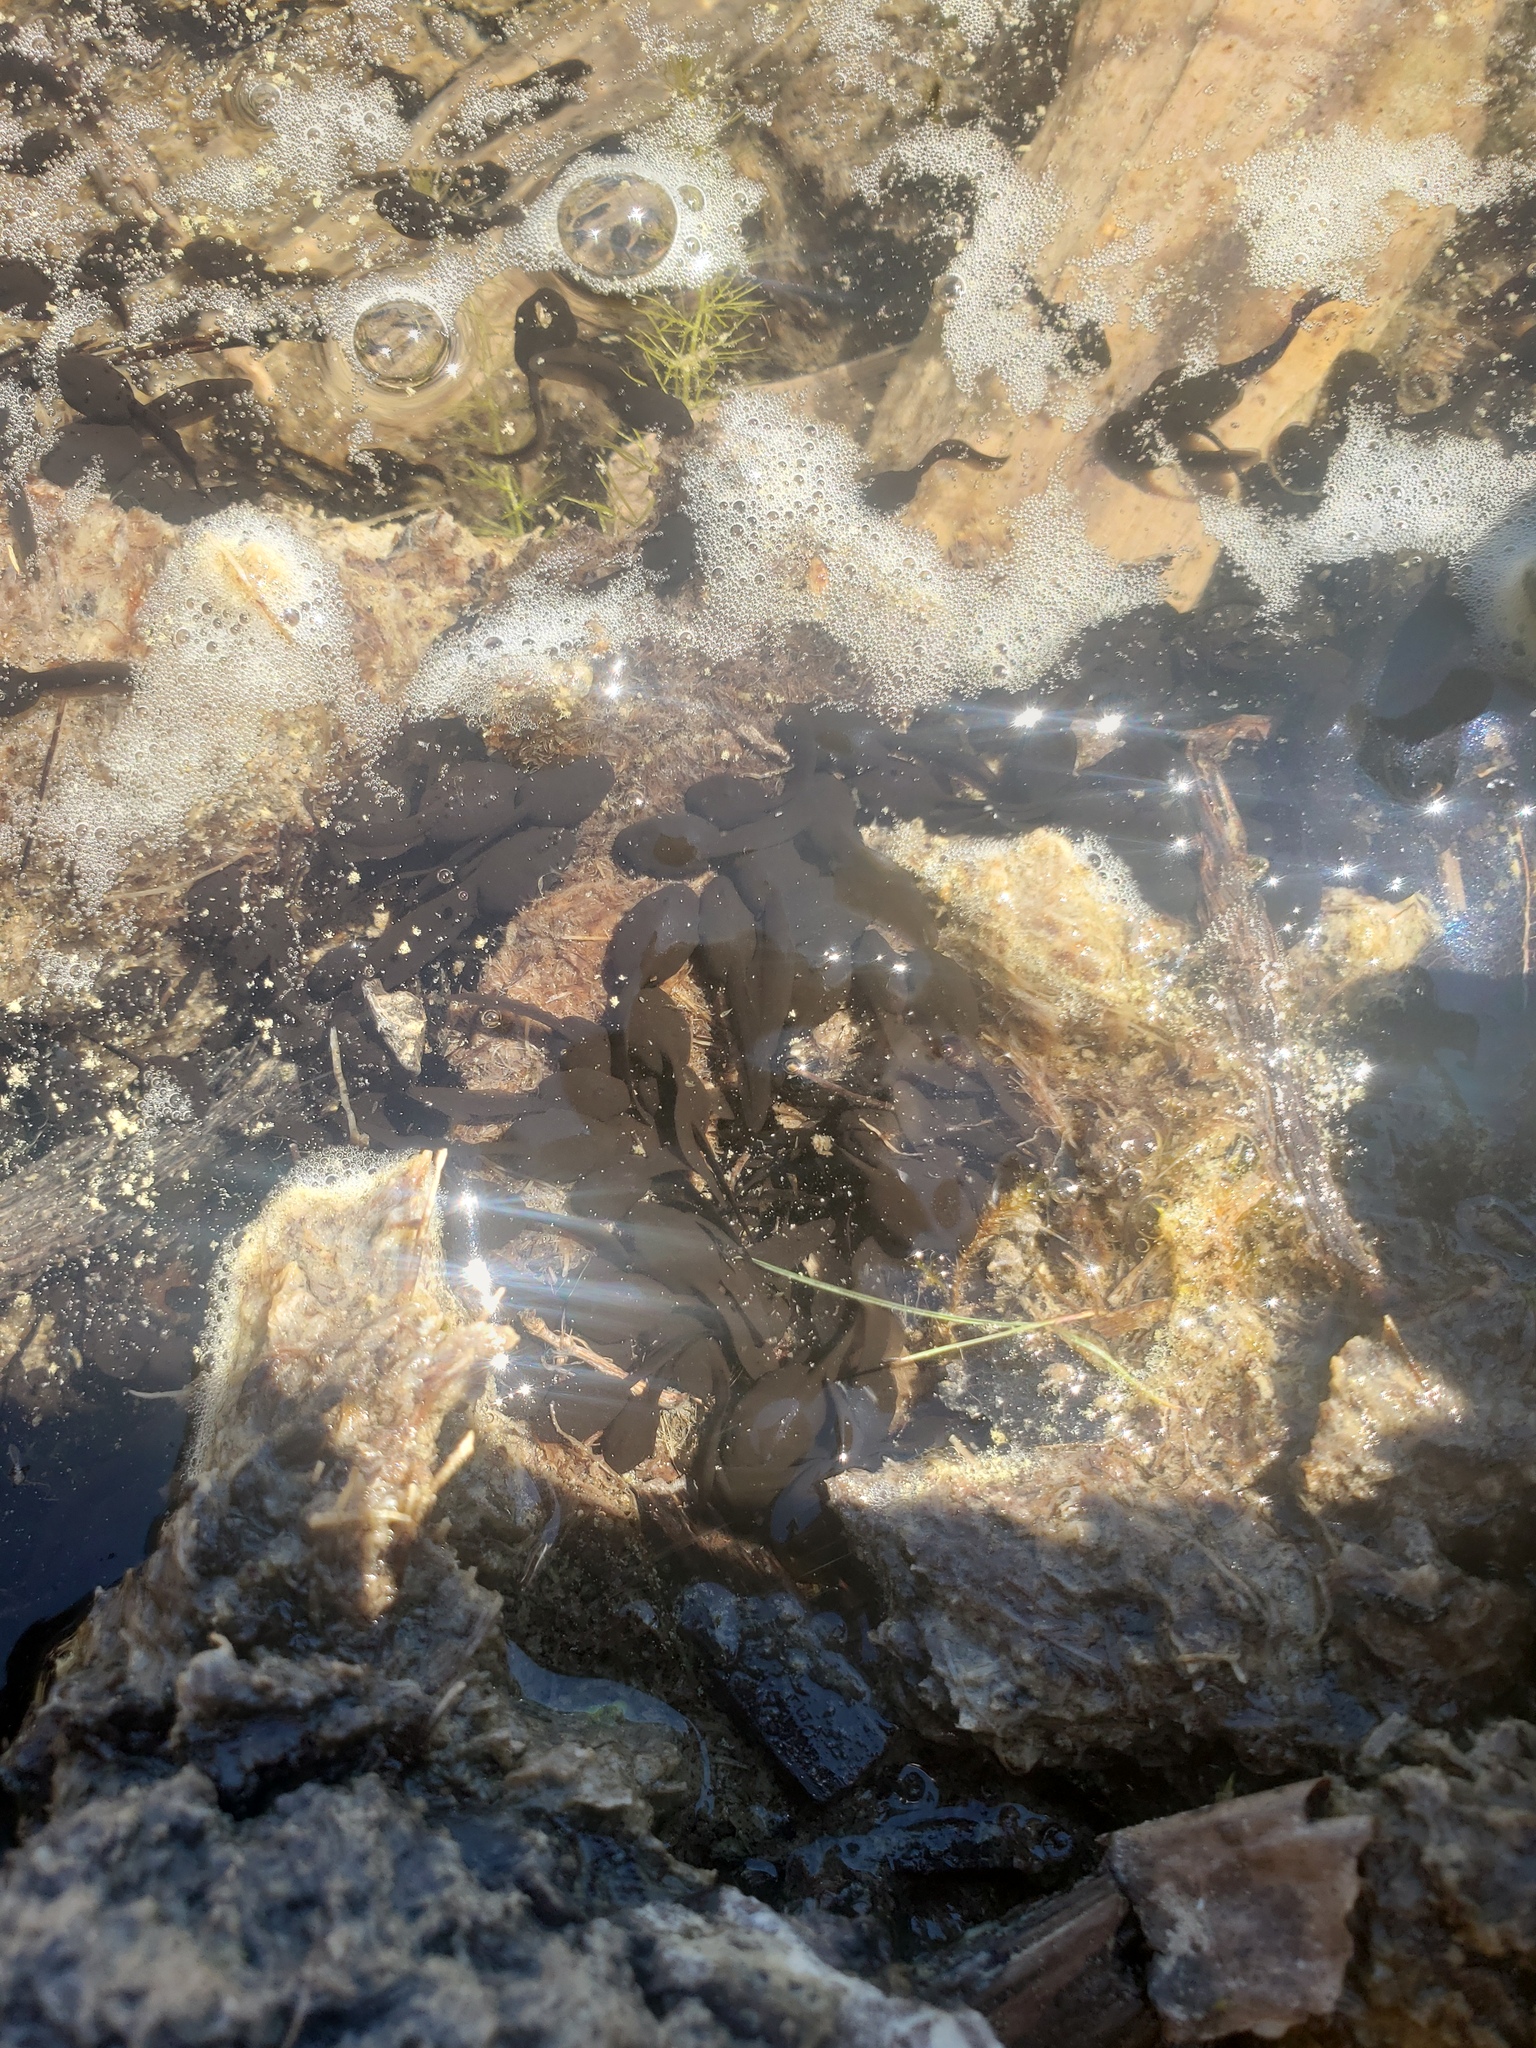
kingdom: Animalia
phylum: Chordata
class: Amphibia
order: Anura
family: Bufonidae
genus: Anaxyrus
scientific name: Anaxyrus boreas
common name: Western toad
